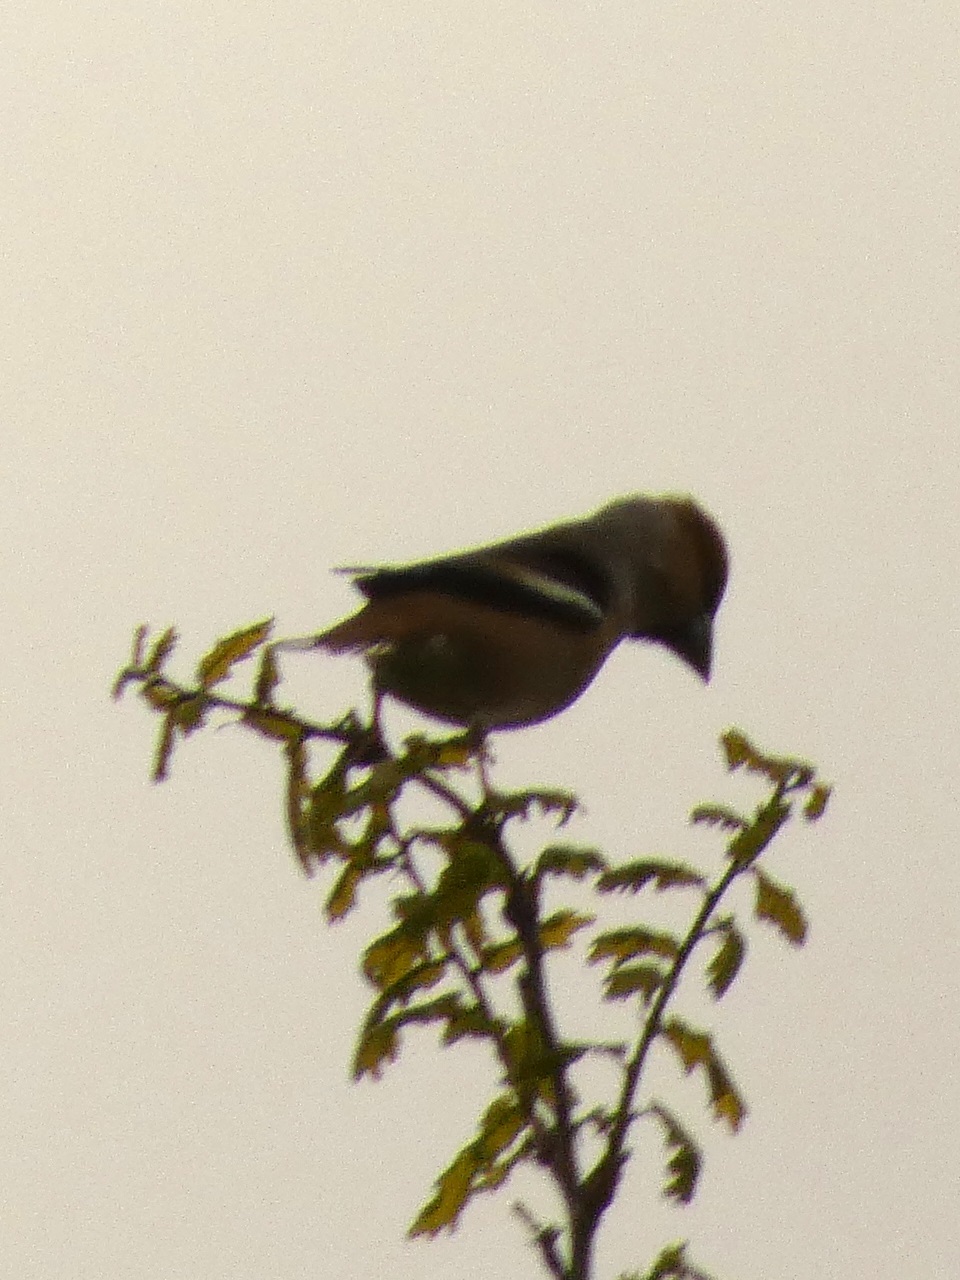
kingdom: Animalia
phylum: Chordata
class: Aves
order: Passeriformes
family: Fringillidae
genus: Coccothraustes
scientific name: Coccothraustes coccothraustes
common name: Hawfinch
